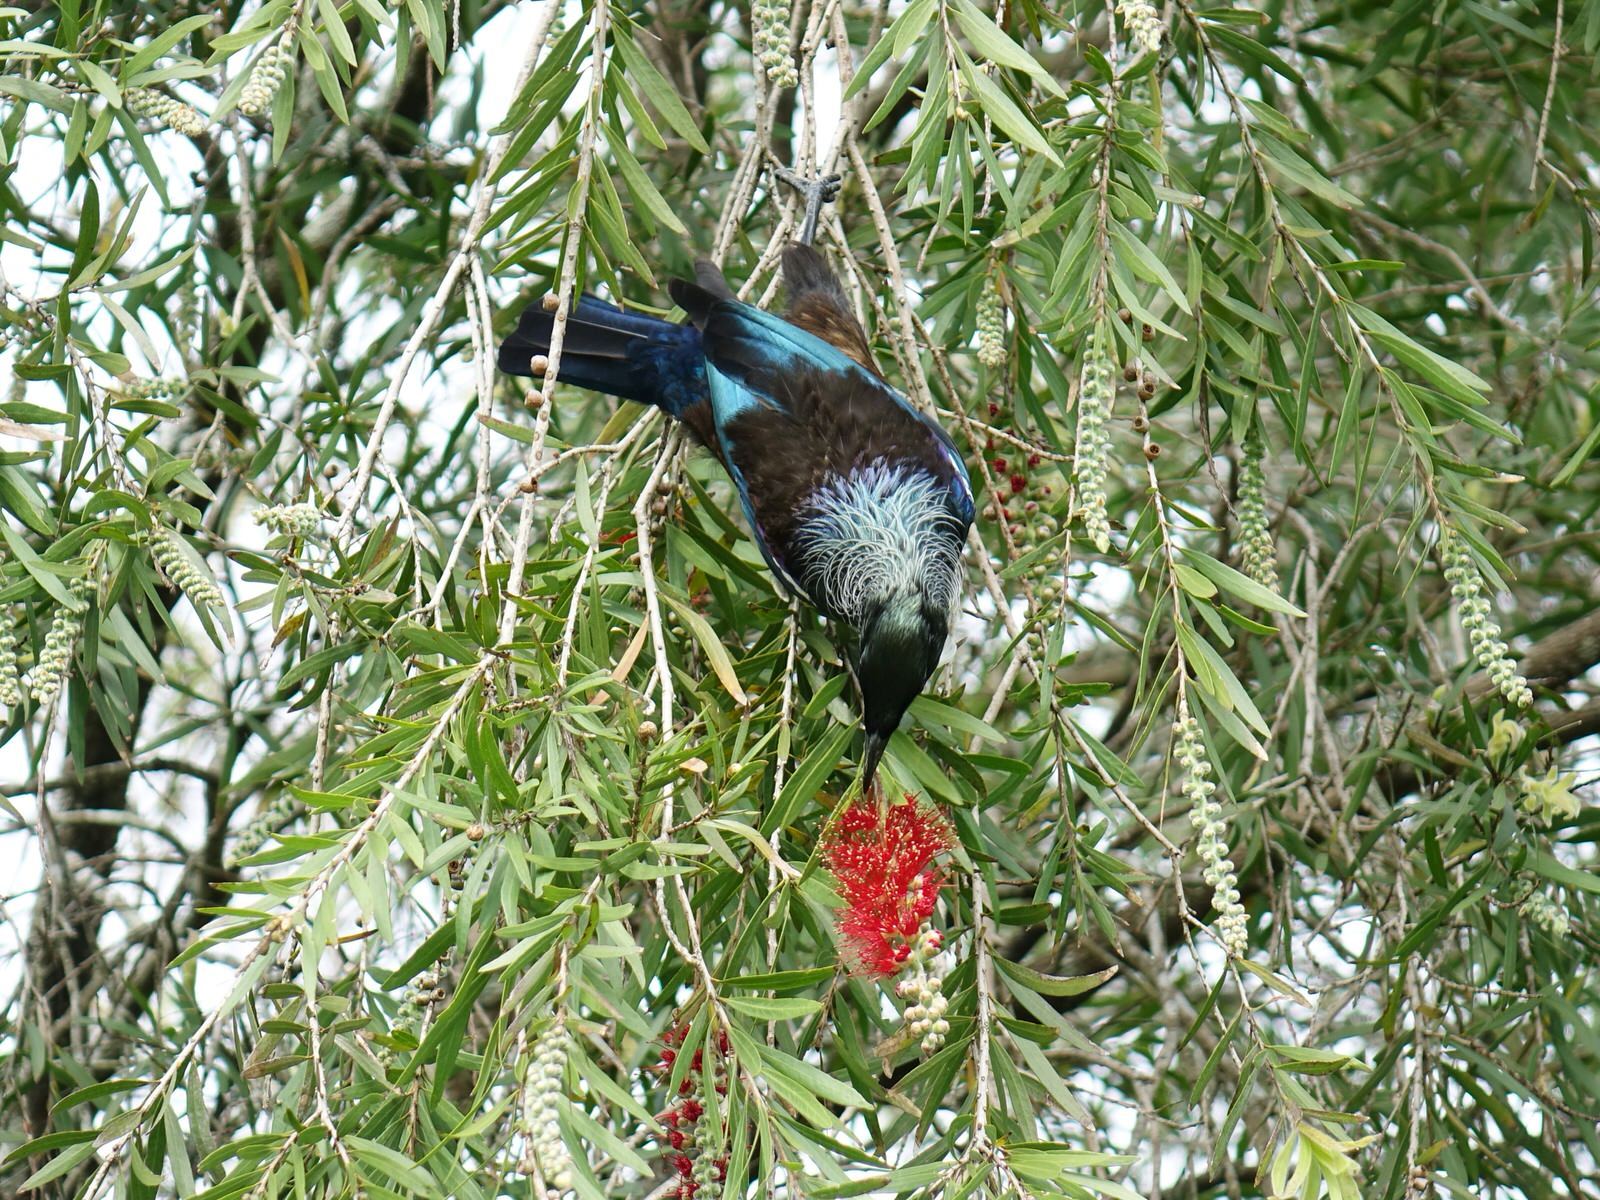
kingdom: Animalia
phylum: Chordata
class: Aves
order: Passeriformes
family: Meliphagidae
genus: Prosthemadera
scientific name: Prosthemadera novaeseelandiae
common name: Tui
